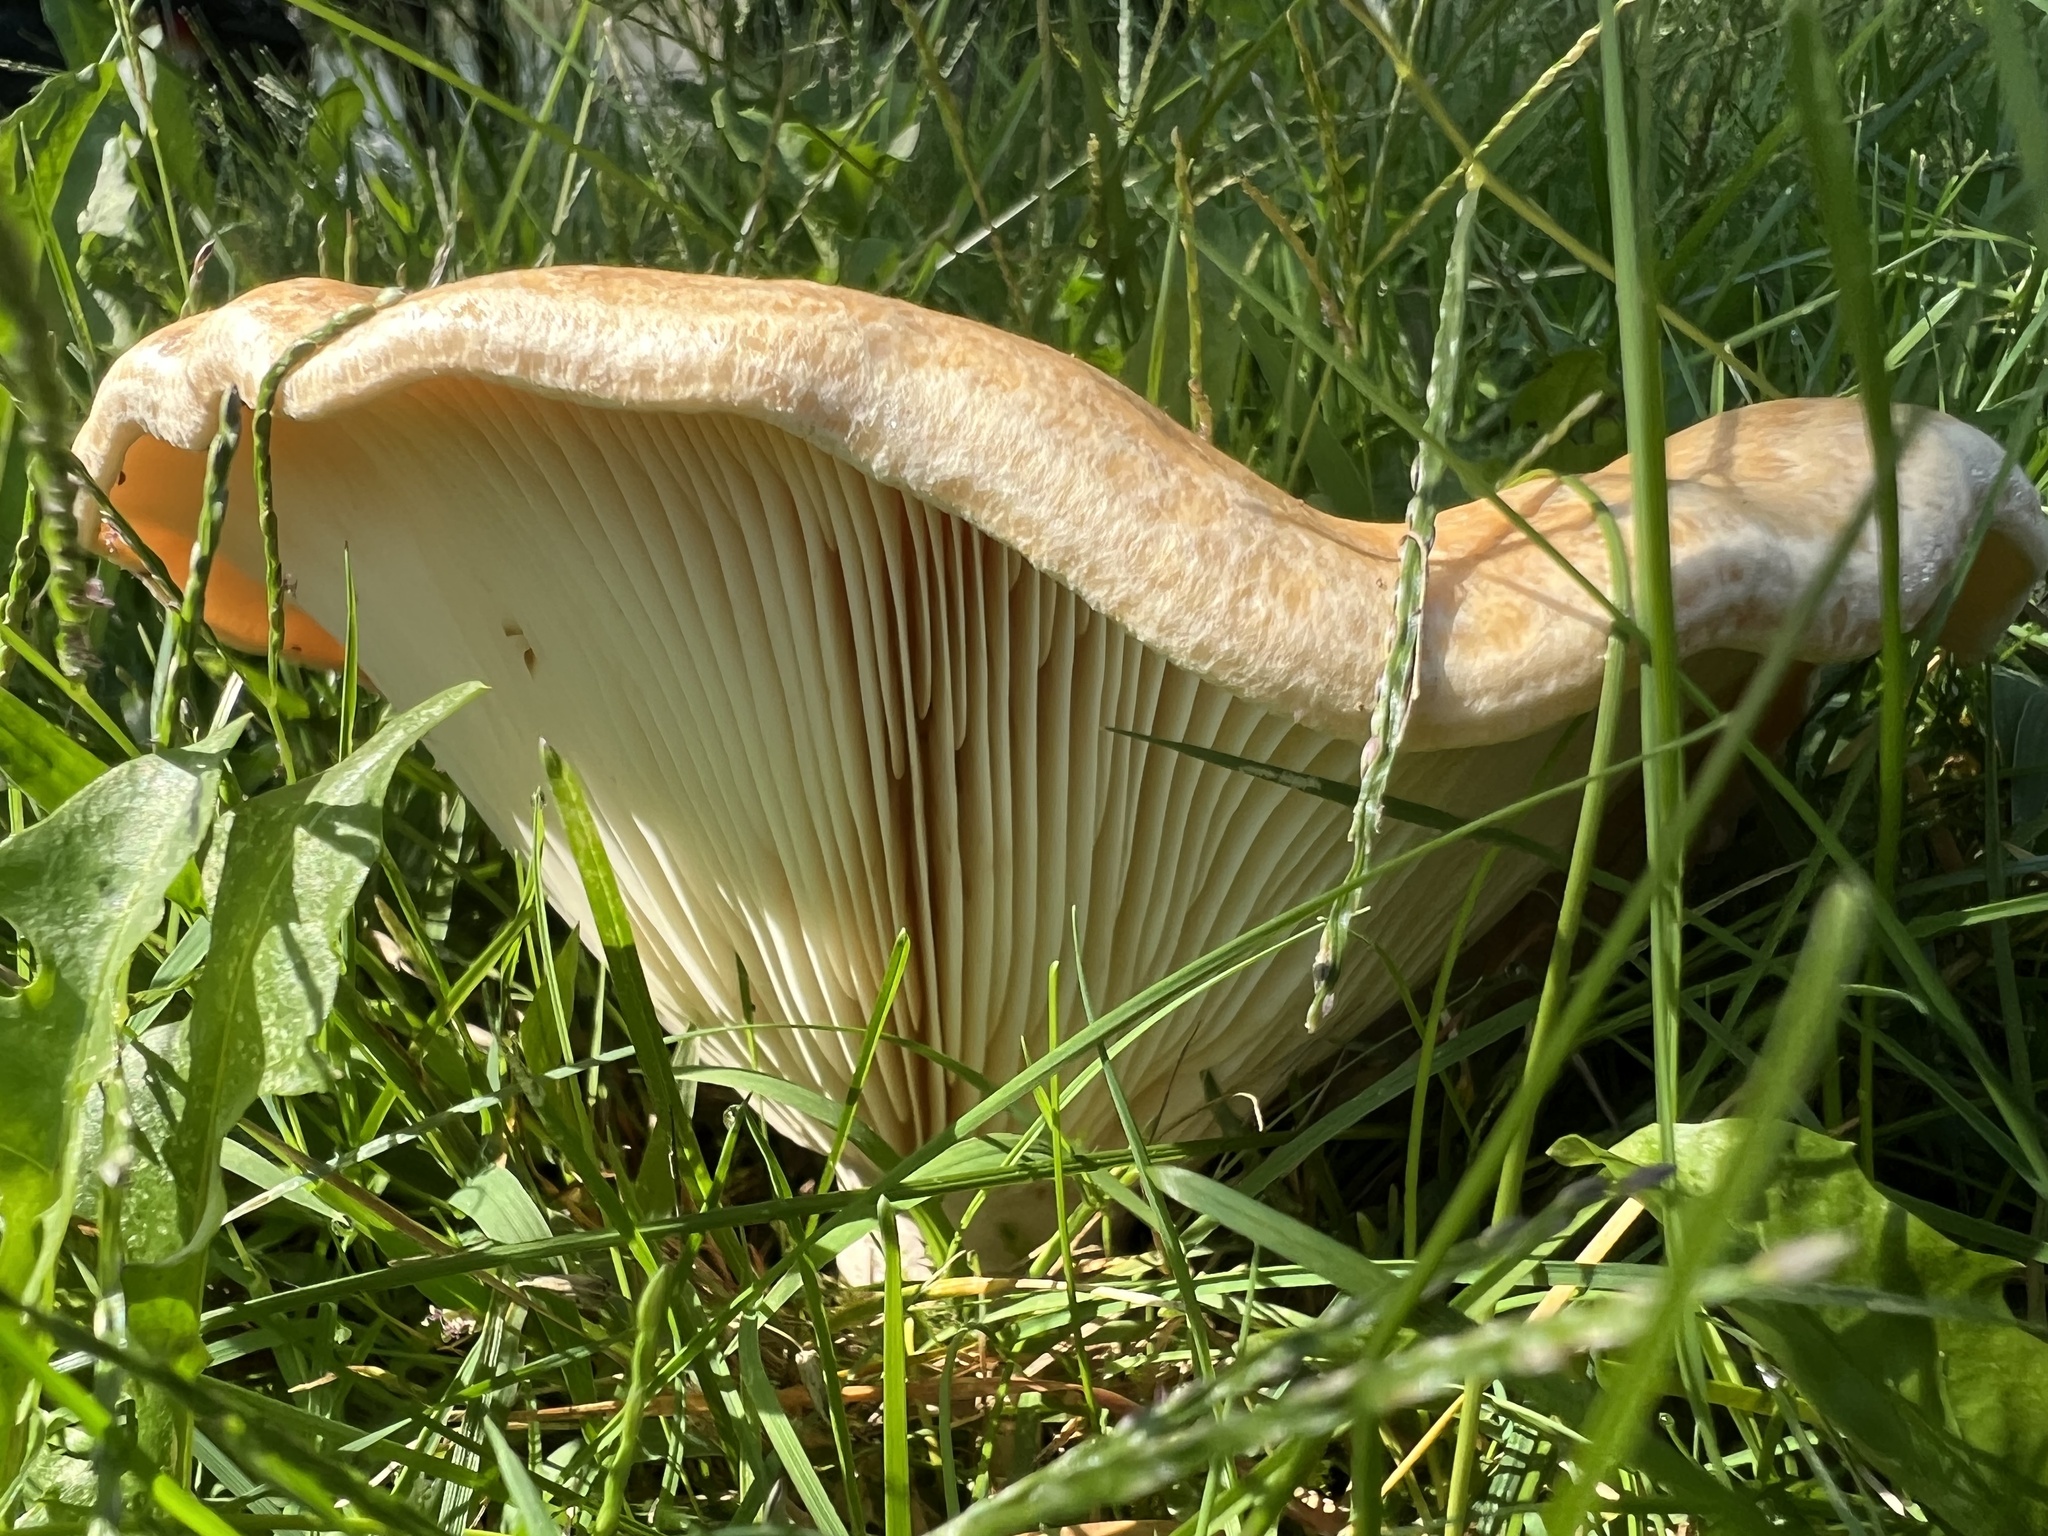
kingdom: Fungi
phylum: Basidiomycota
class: Agaricomycetes
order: Russulales
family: Russulaceae
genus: Lactarius
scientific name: Lactarius alnicola
